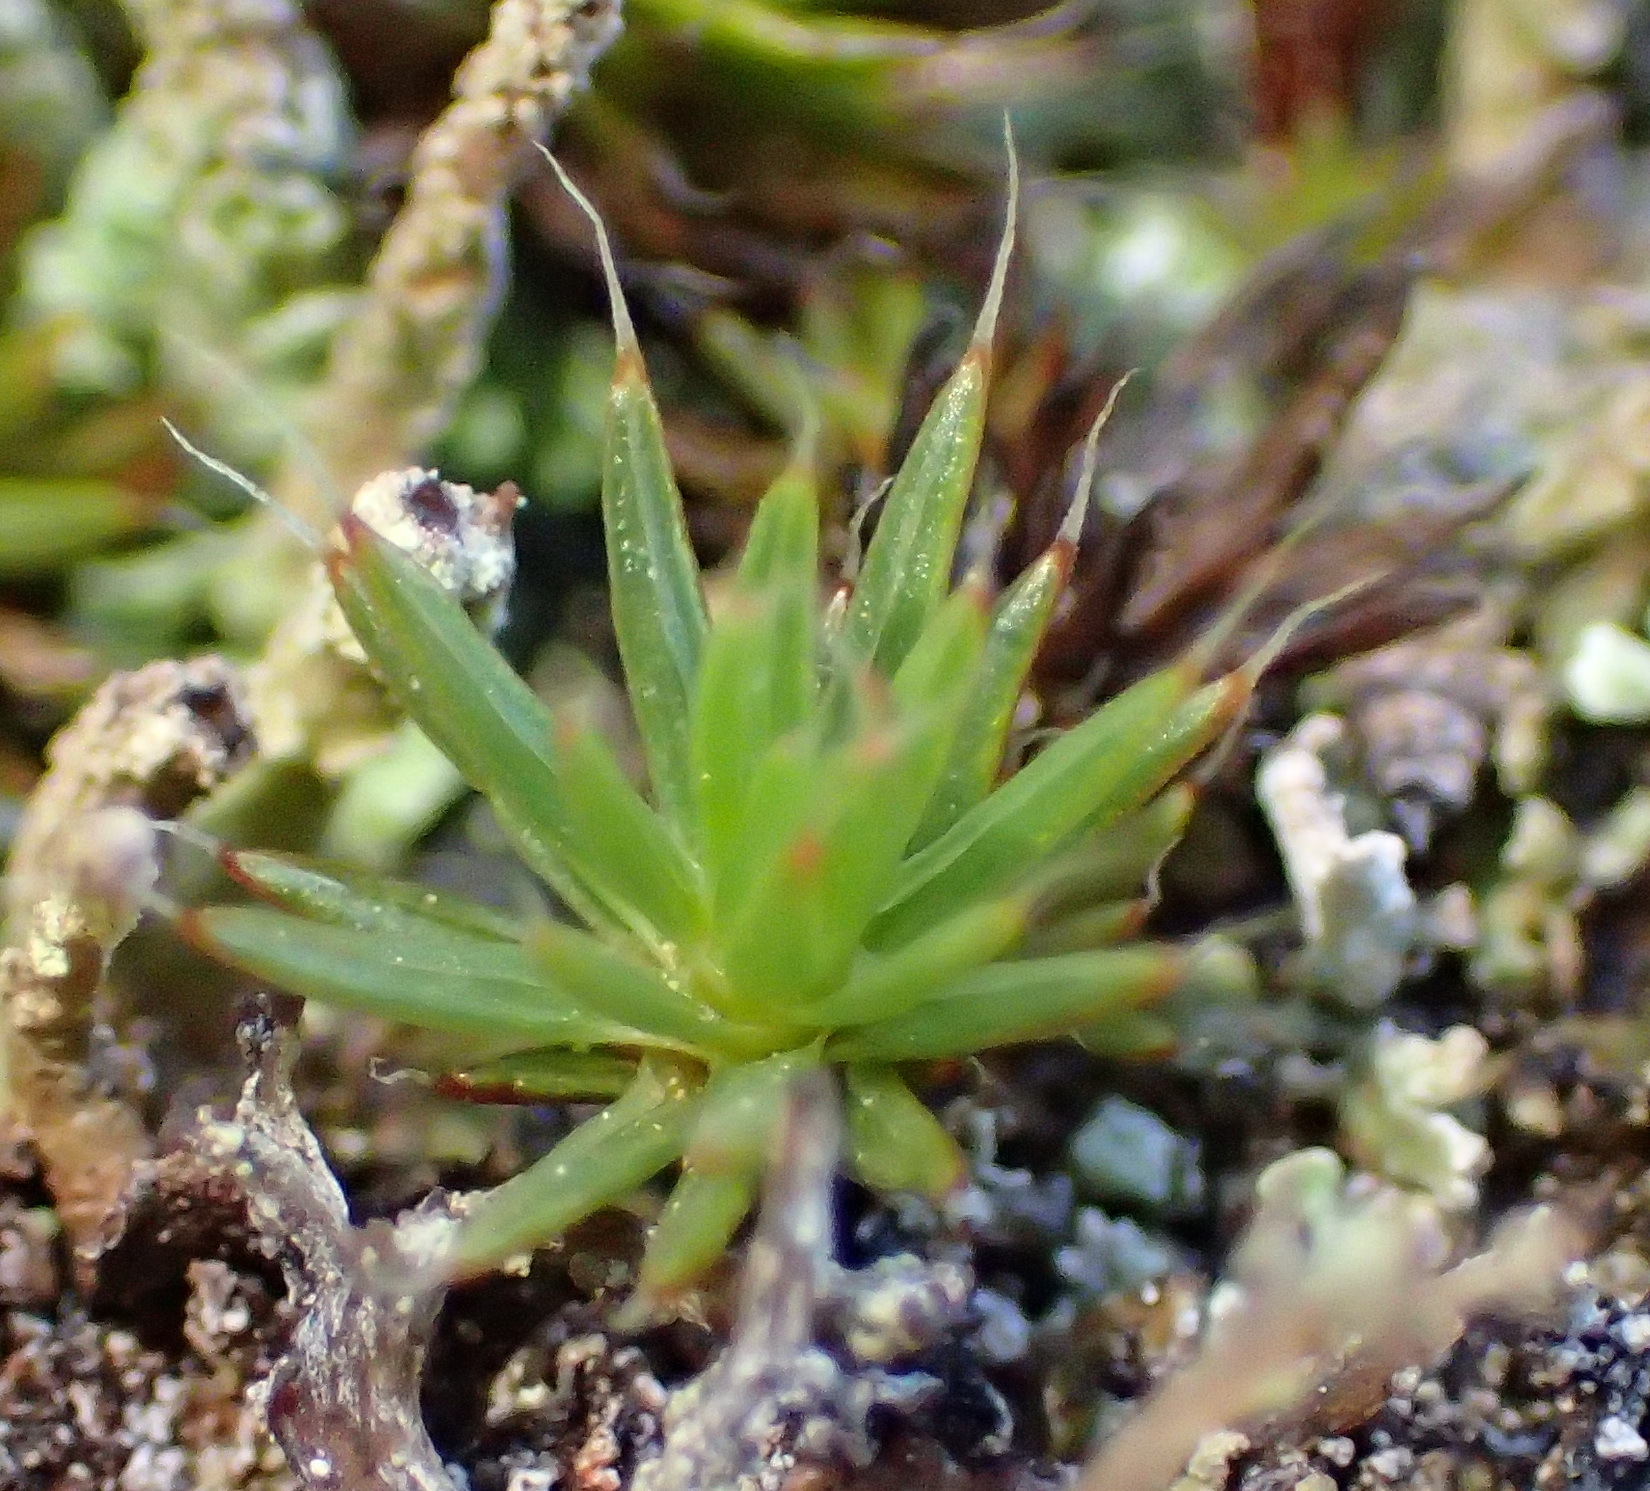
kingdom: Plantae
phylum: Bryophyta
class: Polytrichopsida
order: Polytrichales
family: Polytrichaceae
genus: Polytrichum
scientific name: Polytrichum piliferum
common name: Bristly haircap
